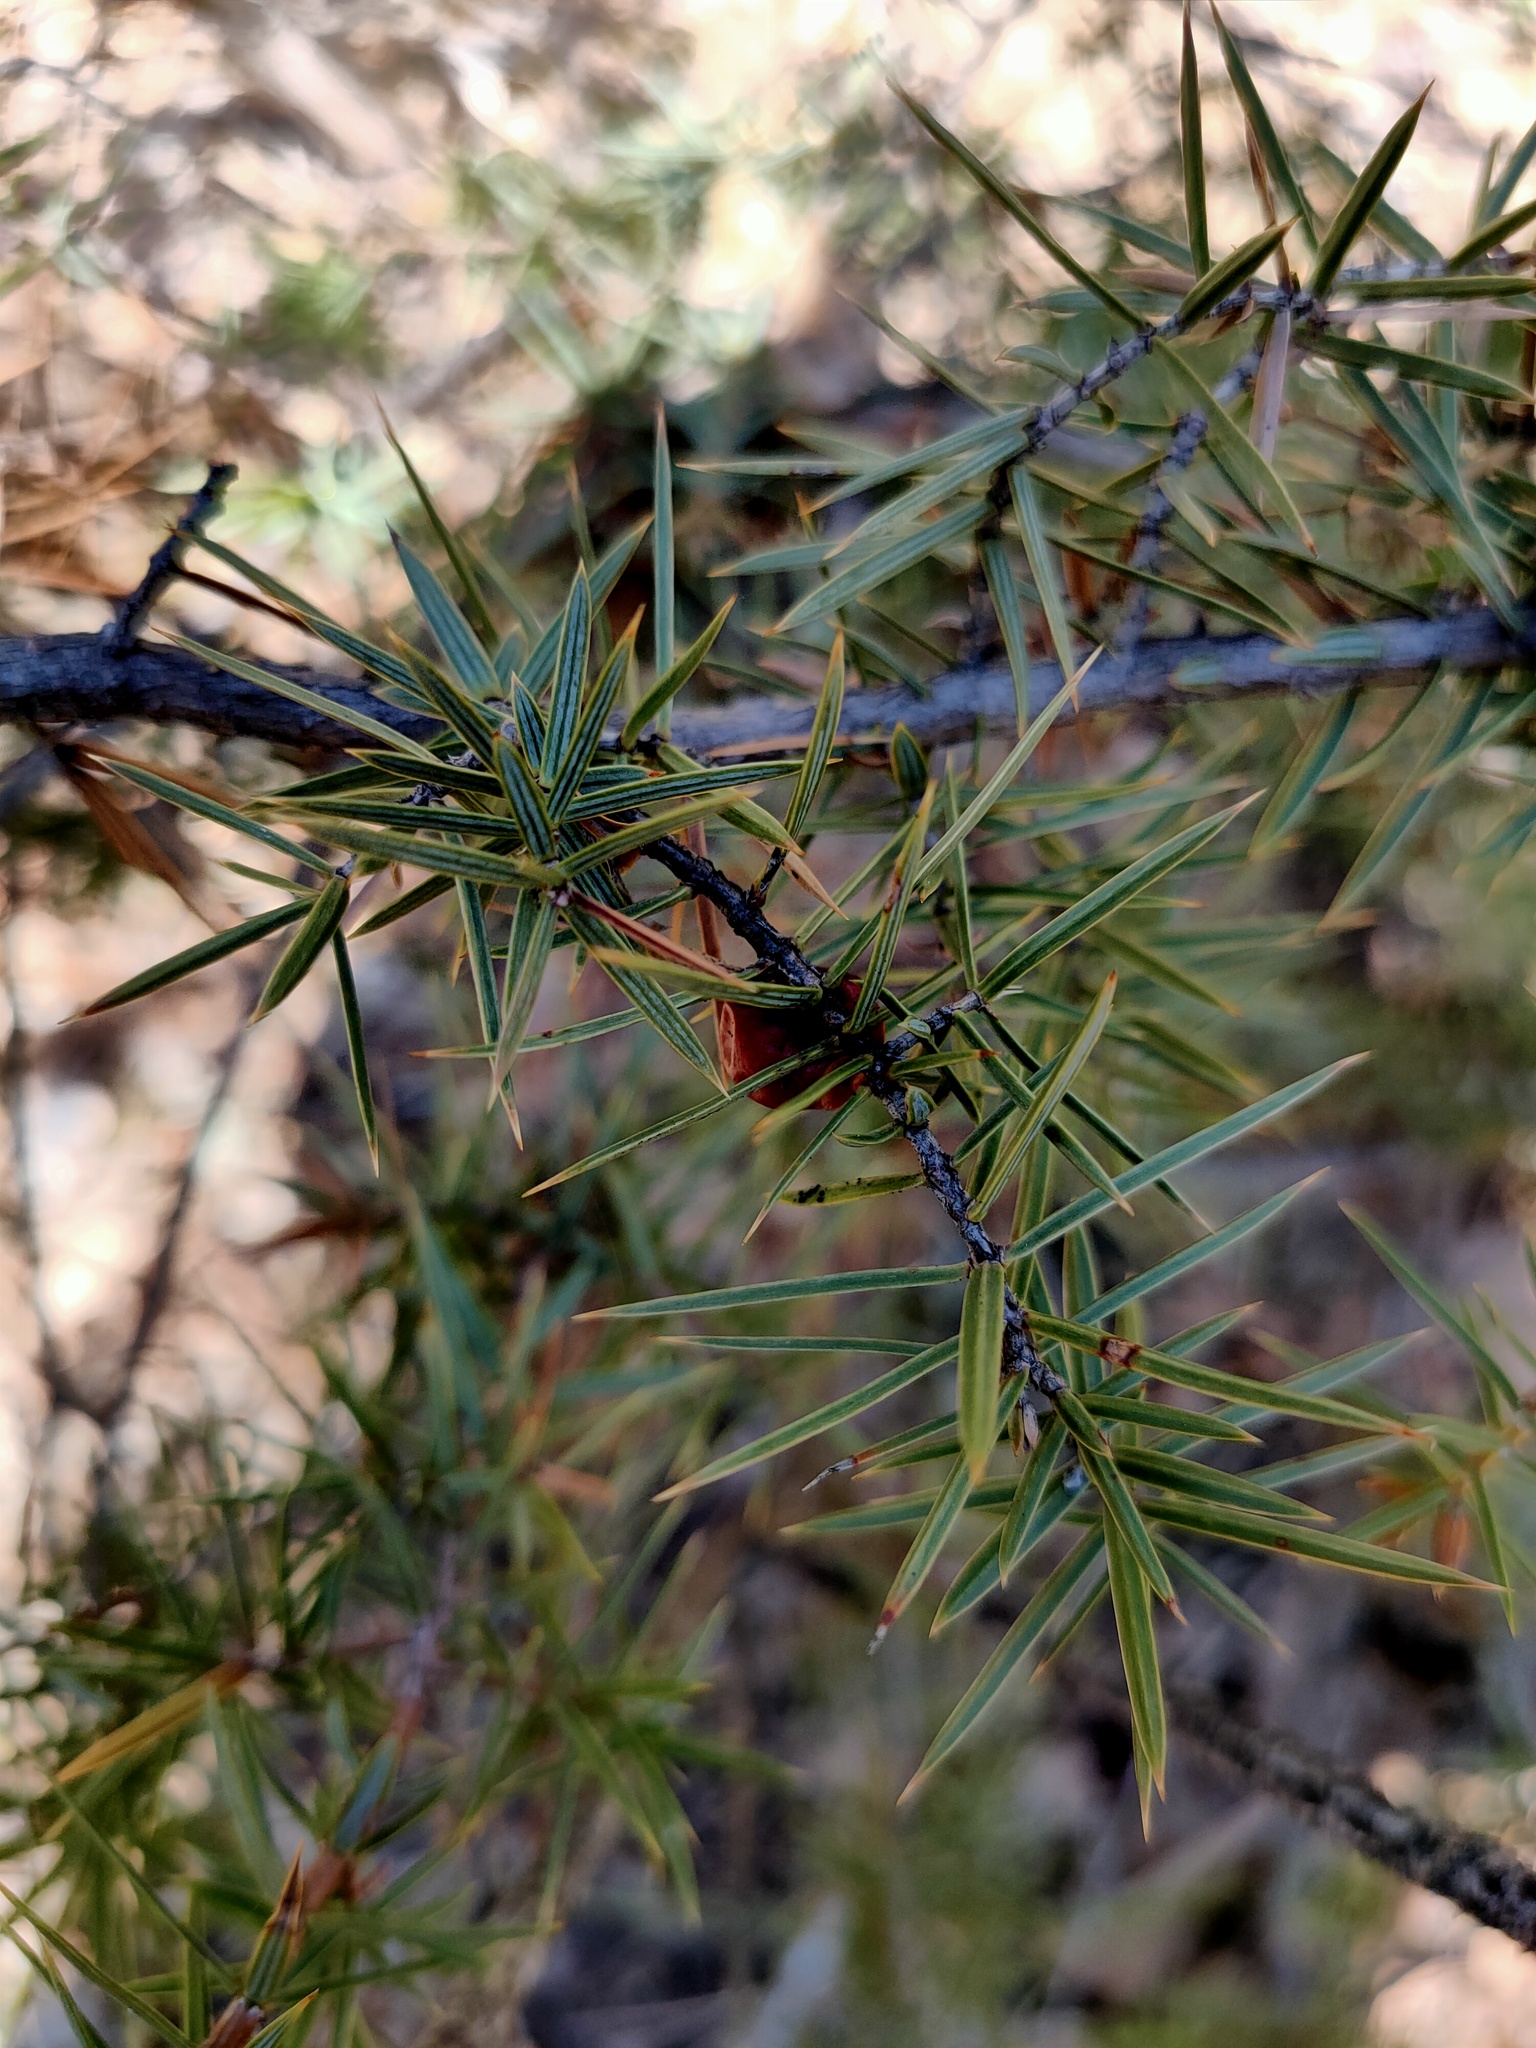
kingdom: Plantae
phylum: Tracheophyta
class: Pinopsida
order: Pinales
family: Cupressaceae
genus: Juniperus
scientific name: Juniperus oxycedrus
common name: Prickly juniper
